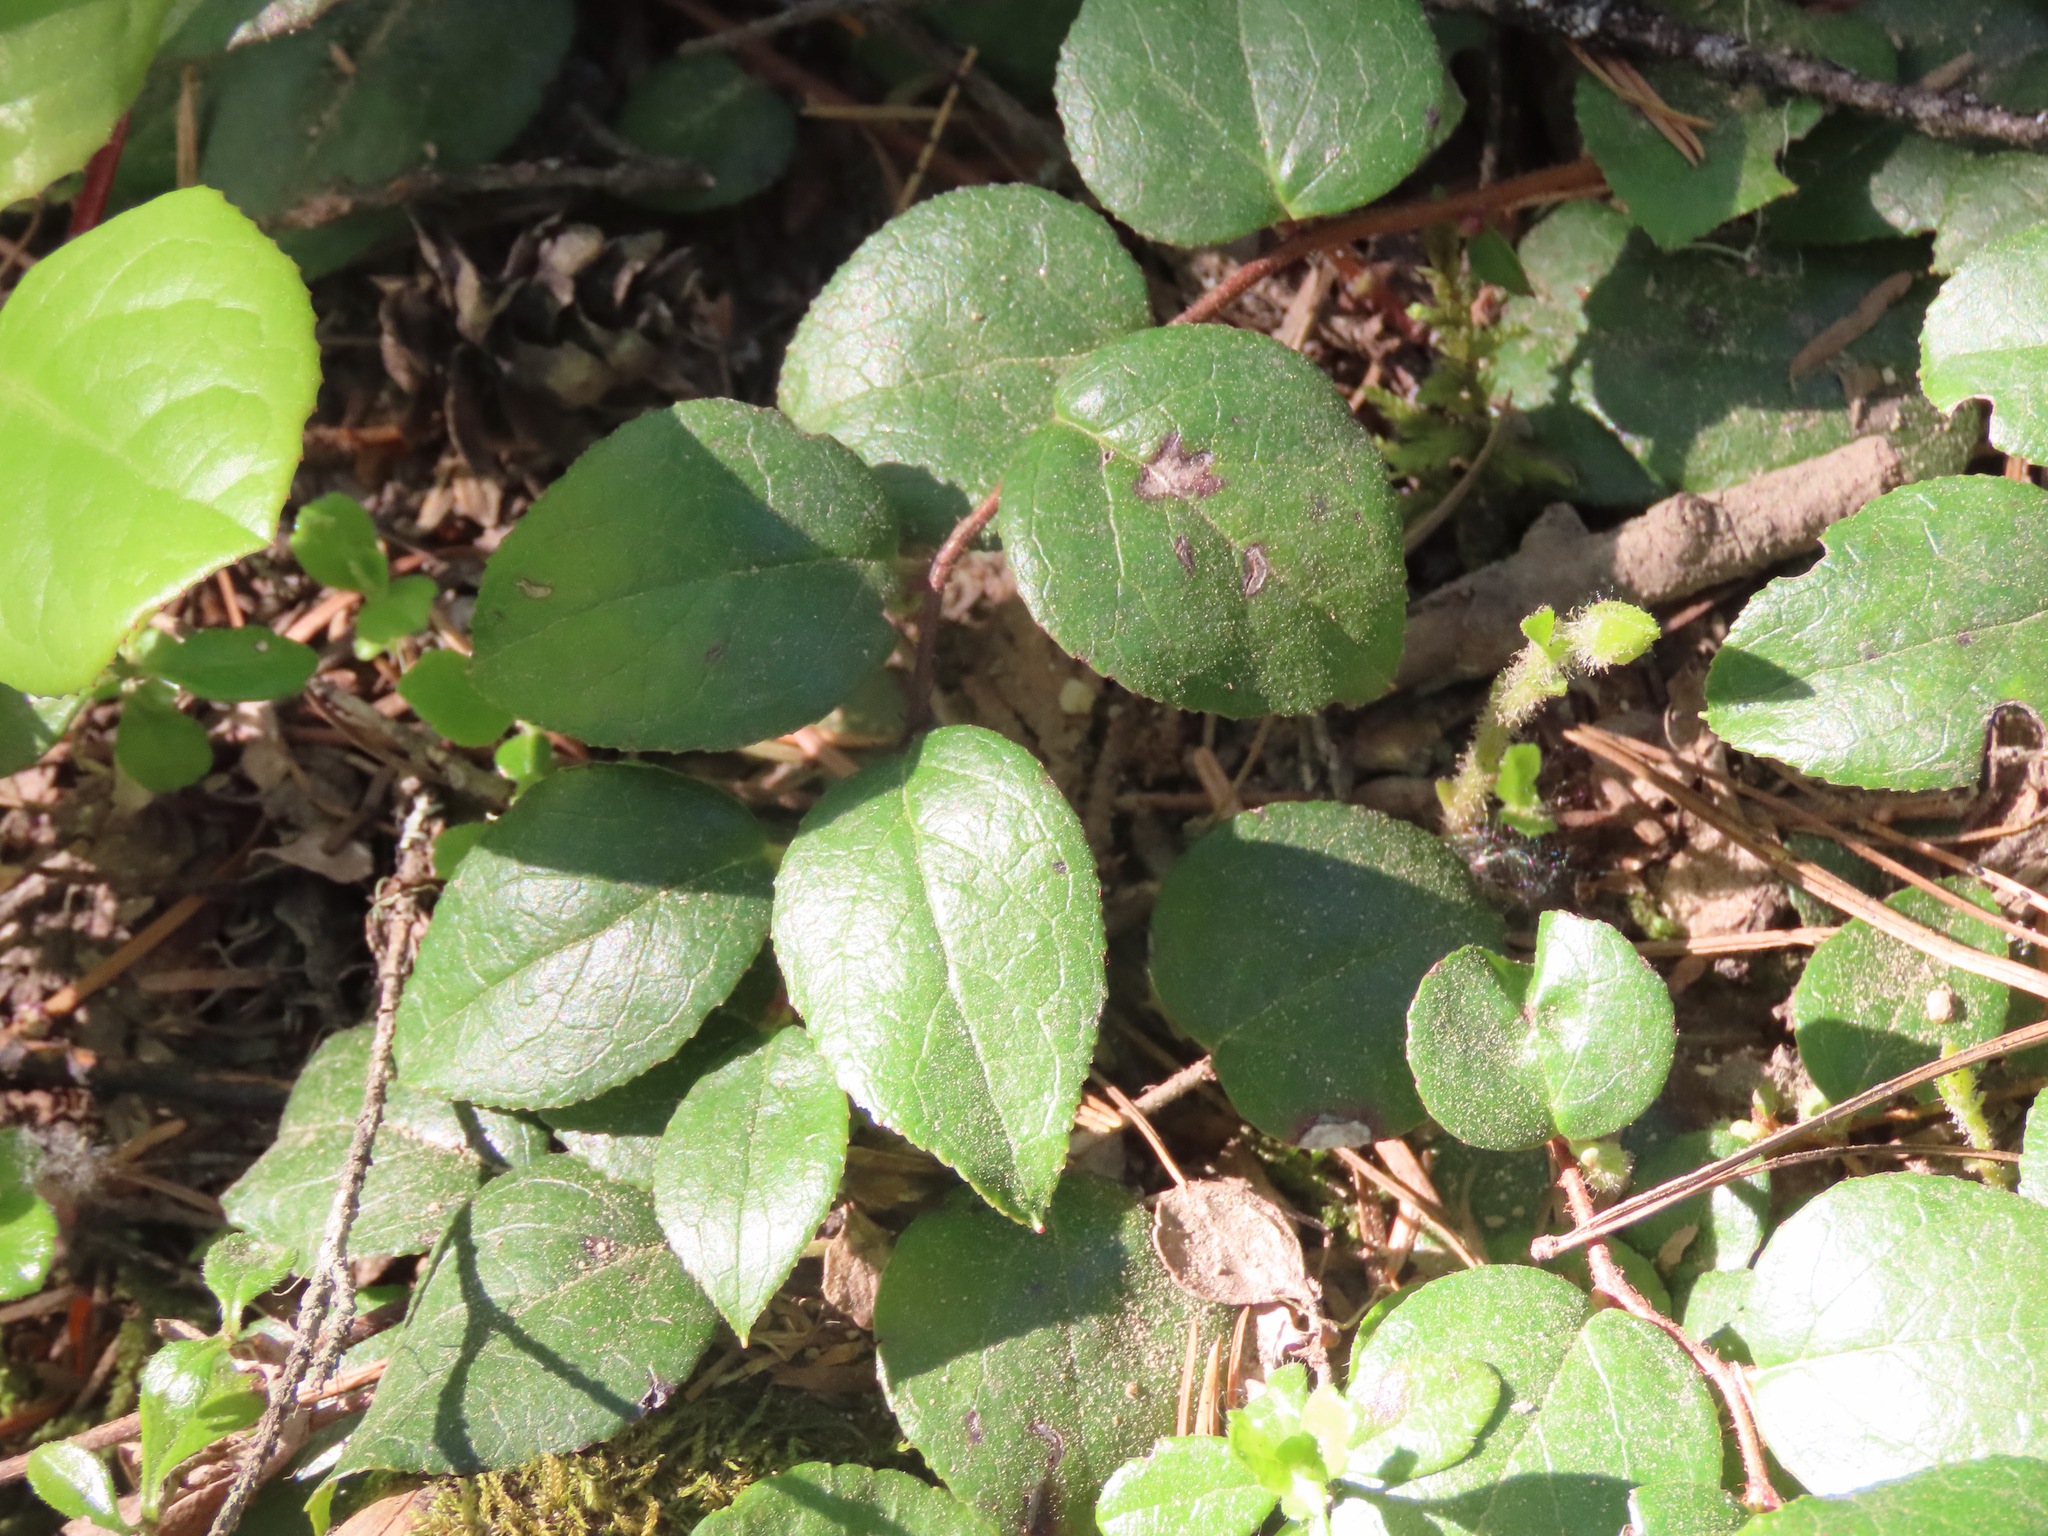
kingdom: Plantae
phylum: Tracheophyta
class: Magnoliopsida
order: Ericales
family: Ericaceae
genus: Gaultheria
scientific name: Gaultheria ovatifolia
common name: Oregon wintergreen
